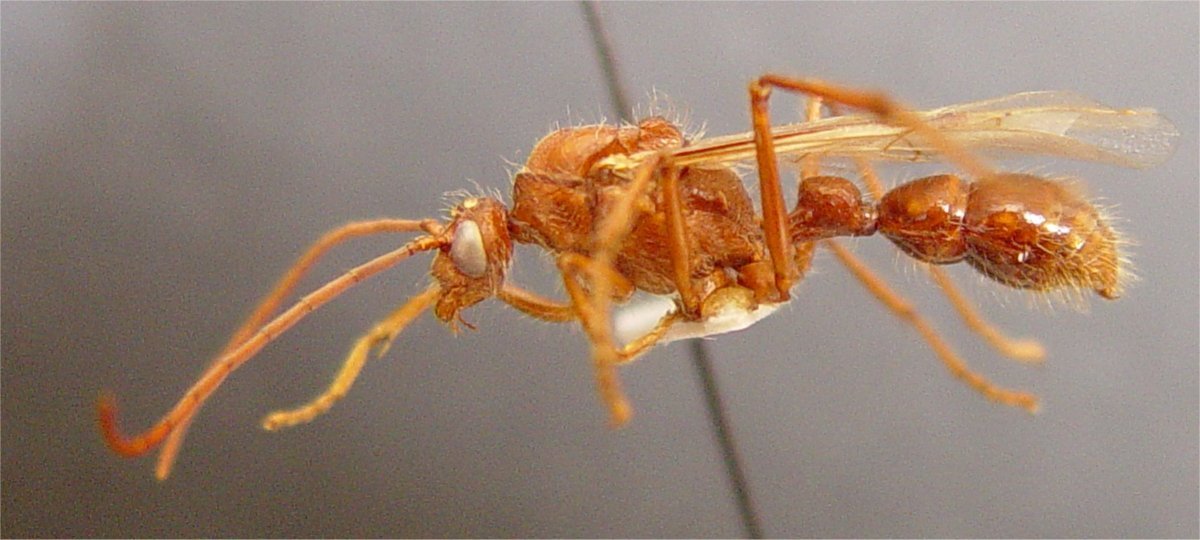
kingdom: Animalia
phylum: Arthropoda
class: Insecta
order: Hymenoptera
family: Formicidae
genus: Paraponera
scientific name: Paraponera clavata
